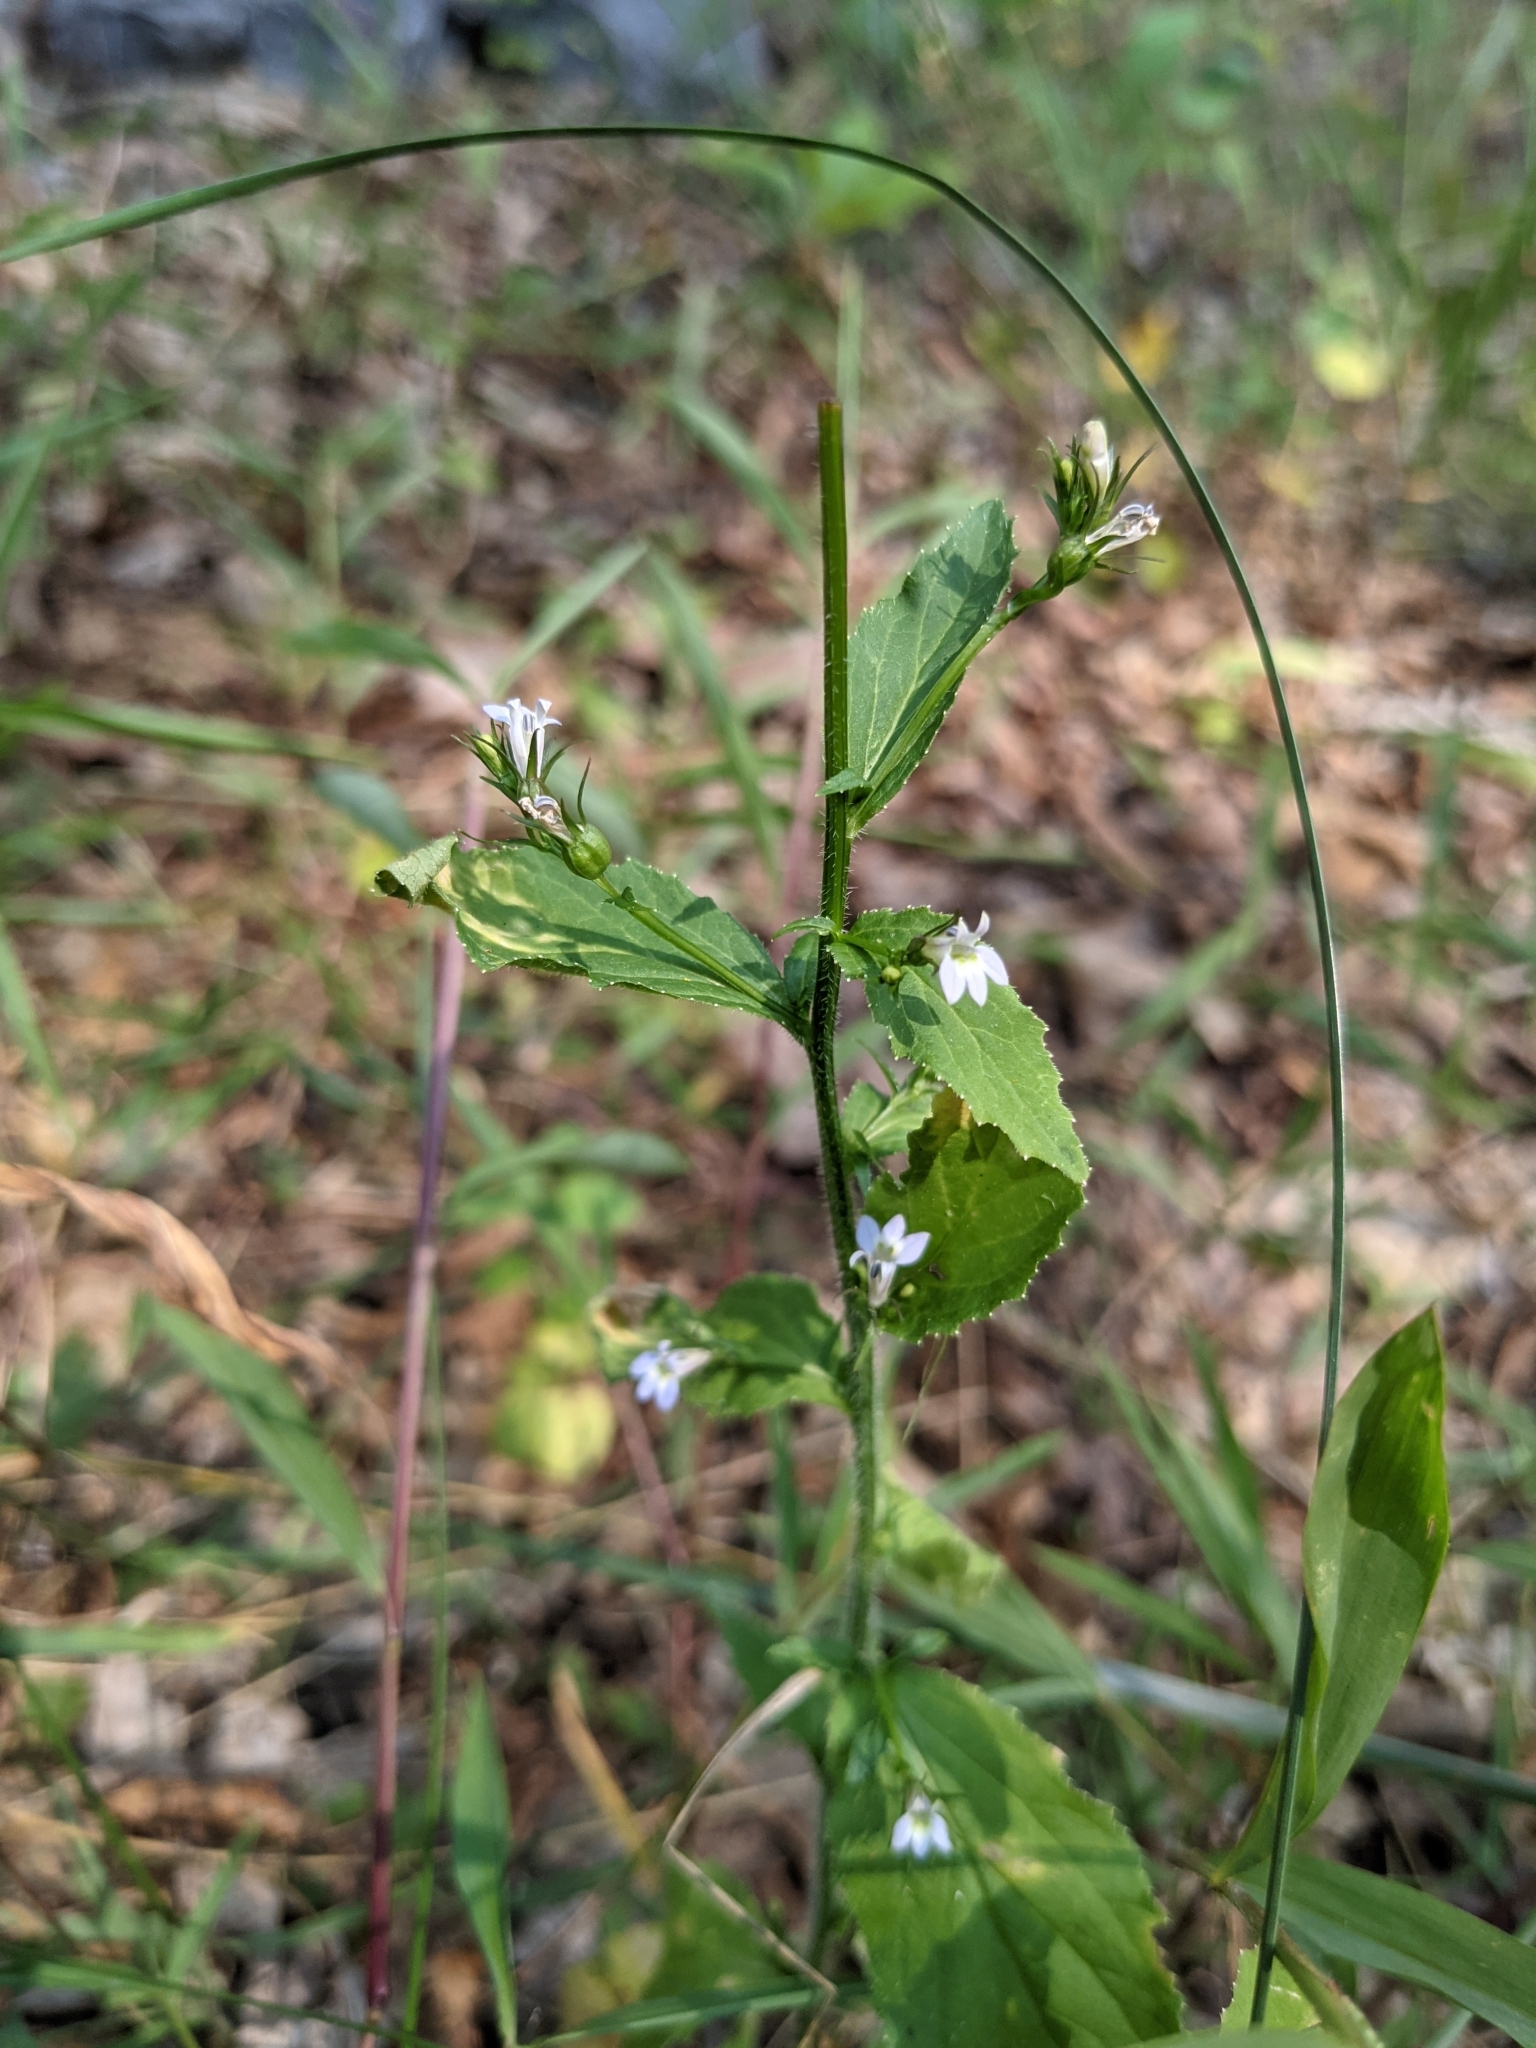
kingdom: Plantae
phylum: Tracheophyta
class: Magnoliopsida
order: Asterales
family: Campanulaceae
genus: Lobelia
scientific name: Lobelia inflata
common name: Indian tobacco
